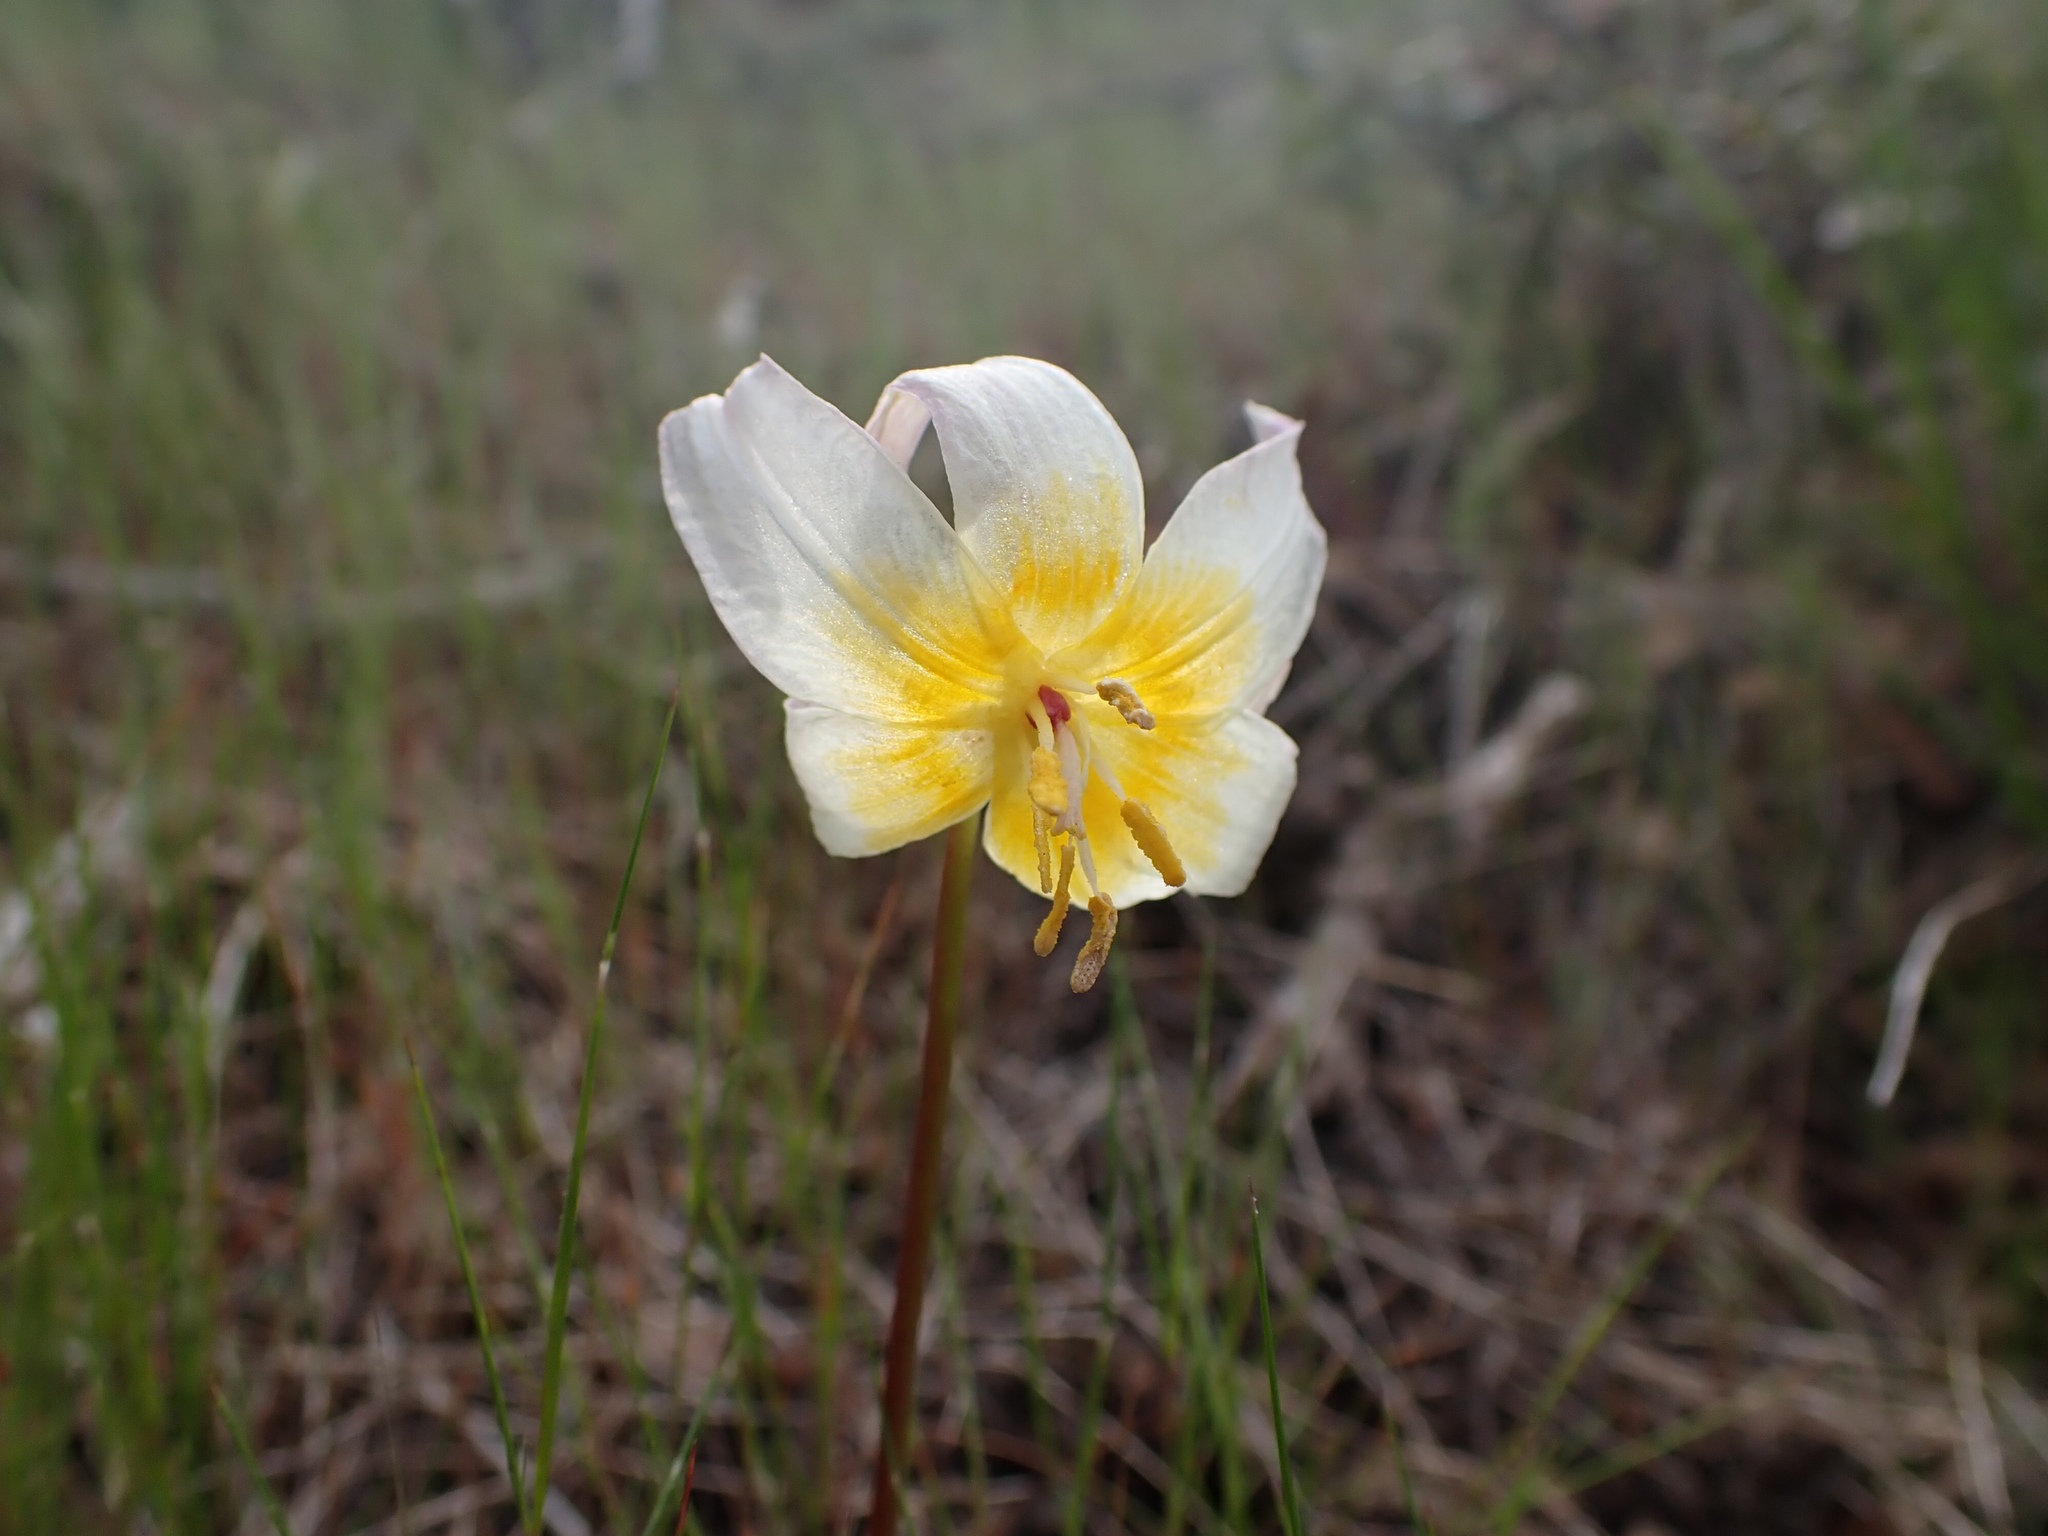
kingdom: Plantae
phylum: Tracheophyta
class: Liliopsida
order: Liliales
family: Liliaceae
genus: Erythronium
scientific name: Erythronium helenae
